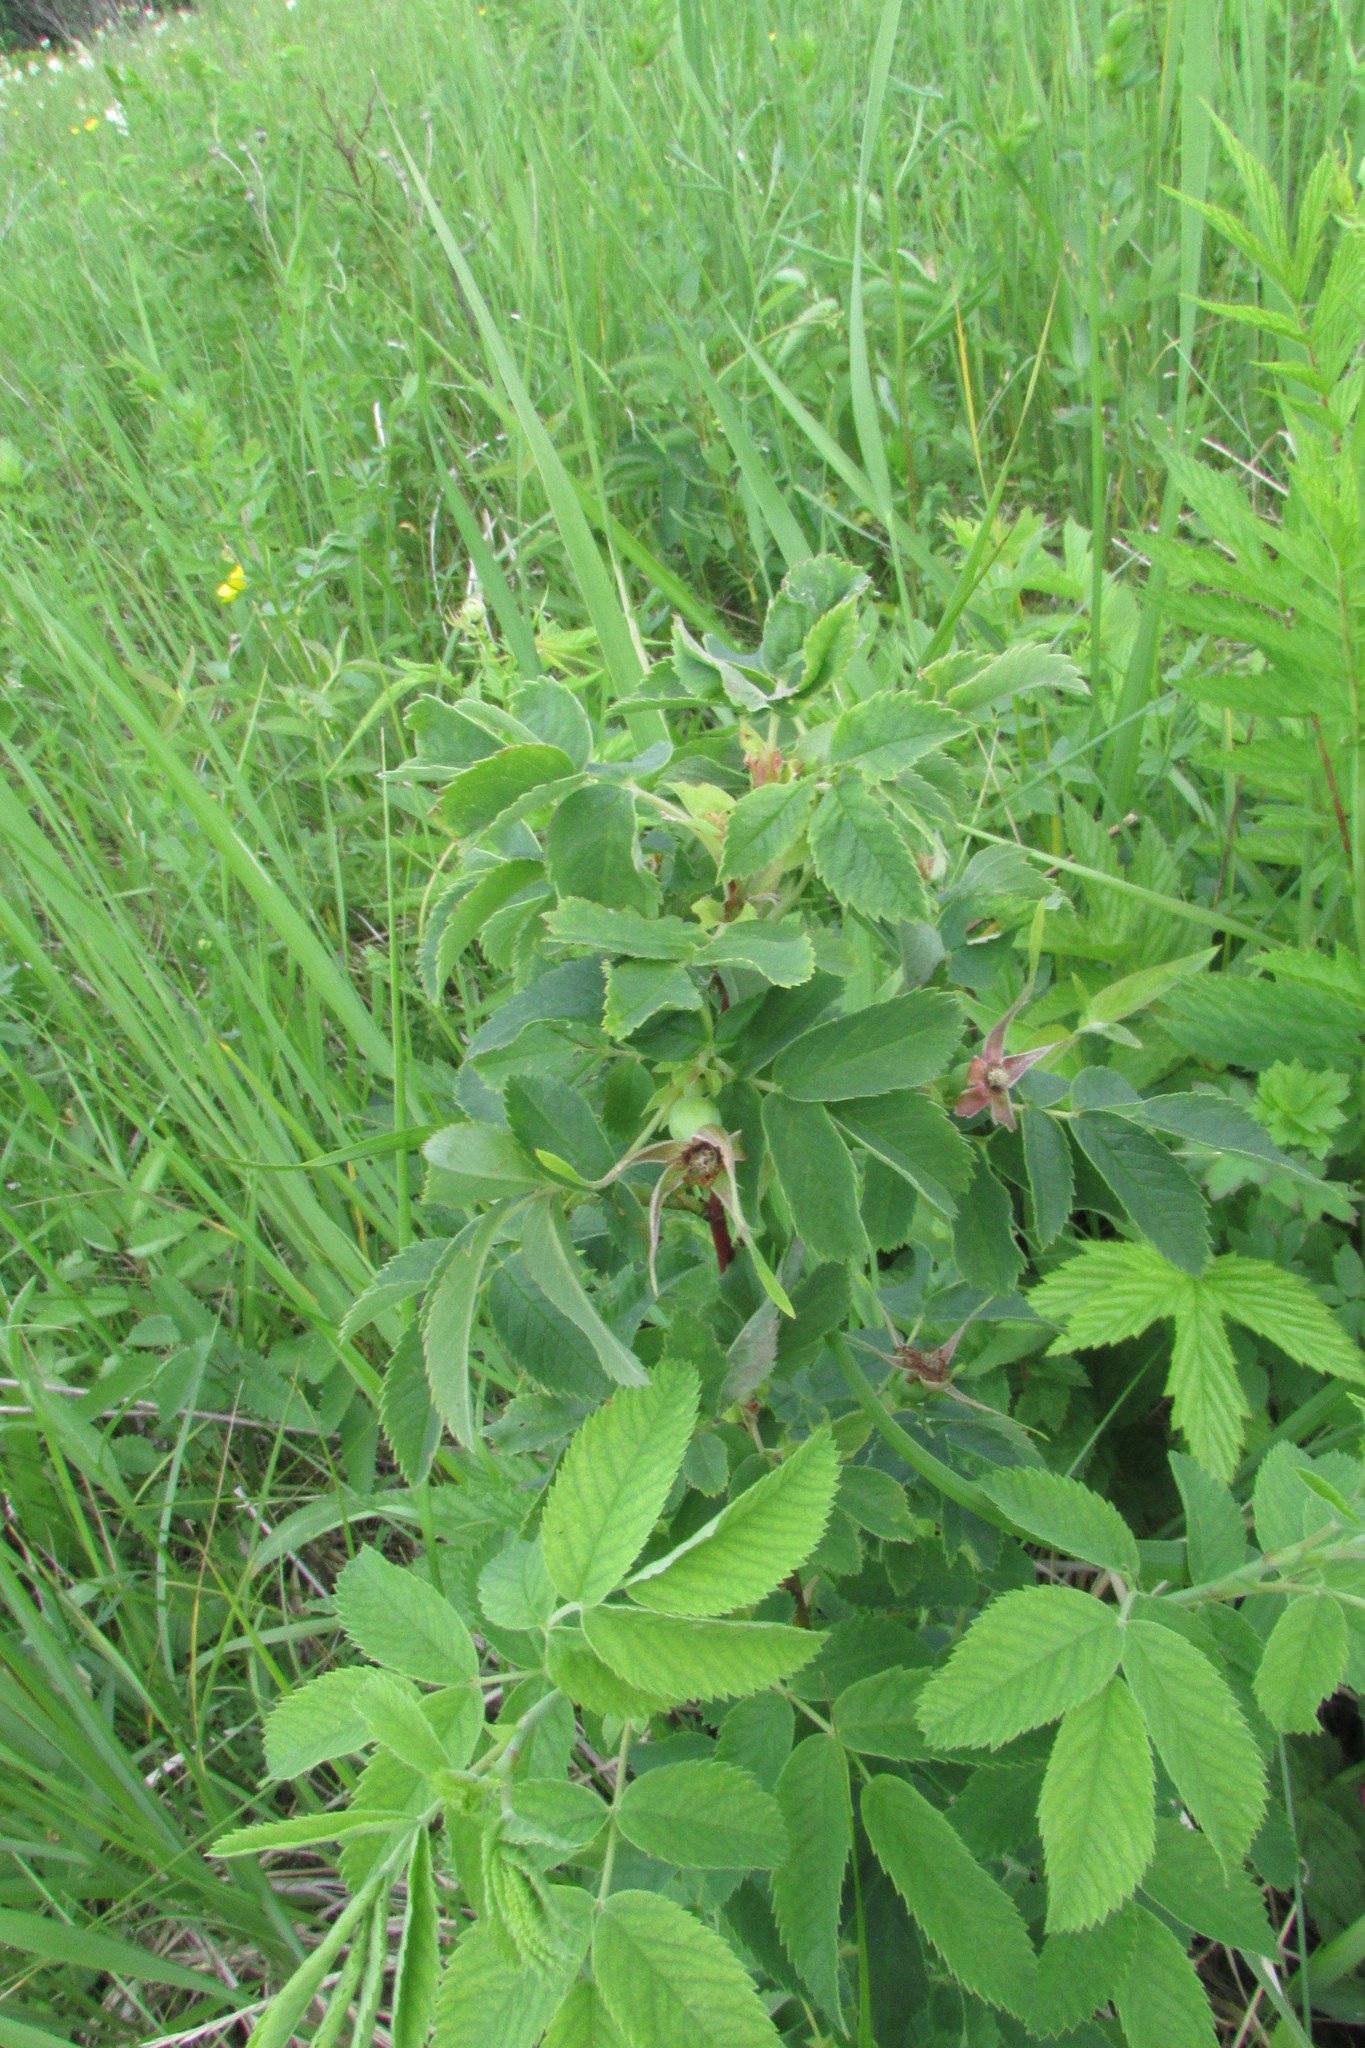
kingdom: Plantae
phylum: Tracheophyta
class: Magnoliopsida
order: Rosales
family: Rosaceae
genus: Rosa
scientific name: Rosa majalis
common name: Cinnamon rose
